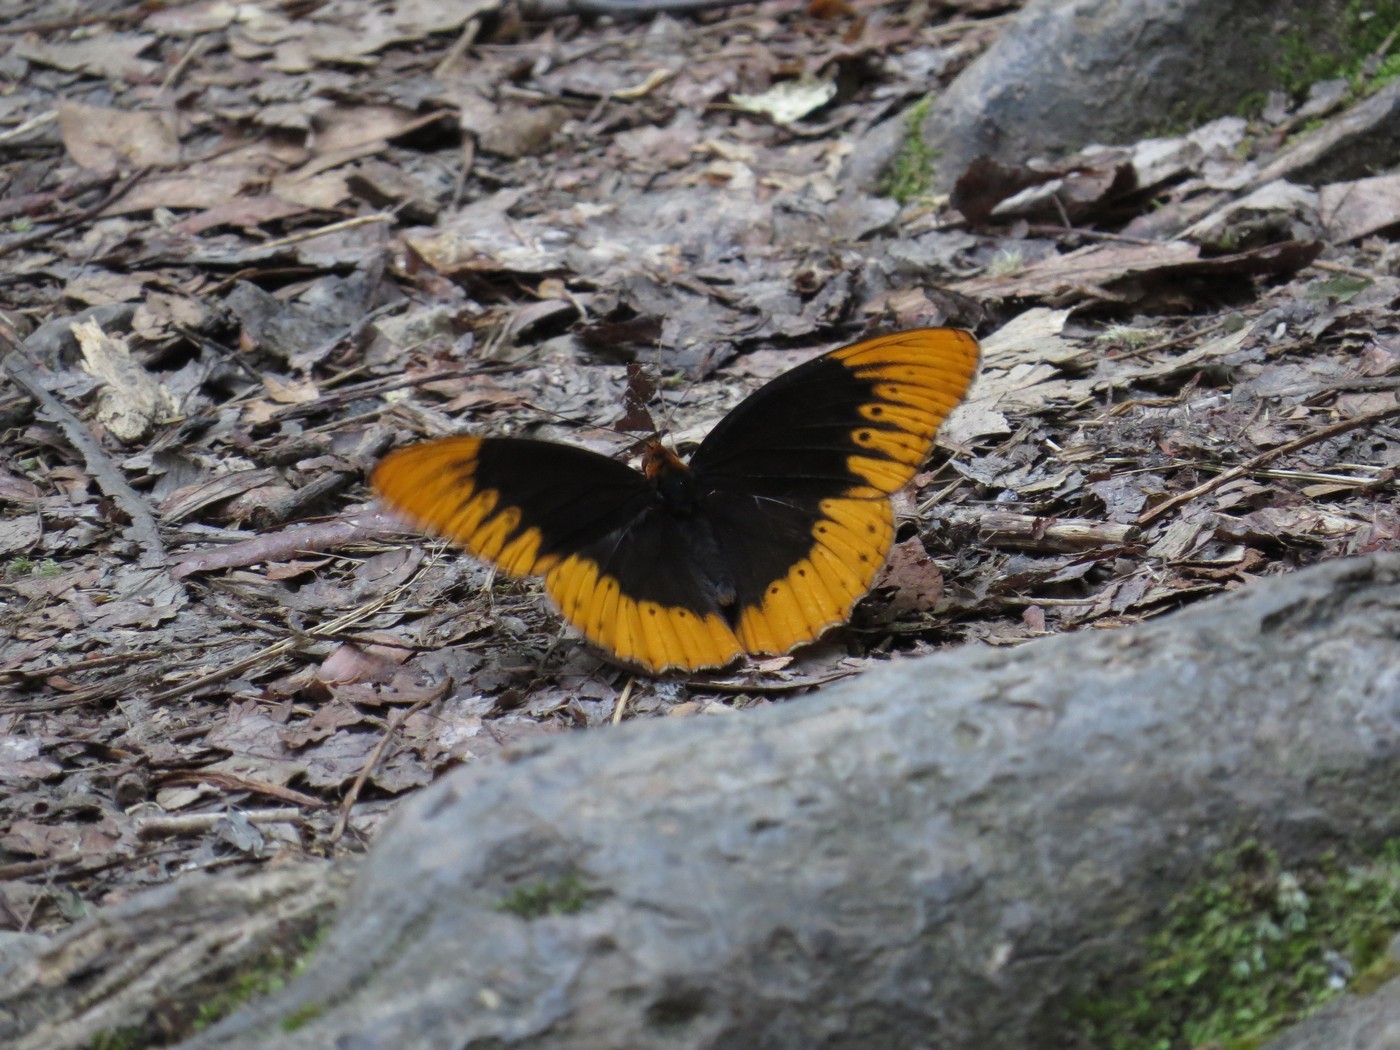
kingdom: Animalia
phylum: Arthropoda
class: Insecta
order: Lepidoptera
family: Nymphalidae
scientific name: Nymphalidae
